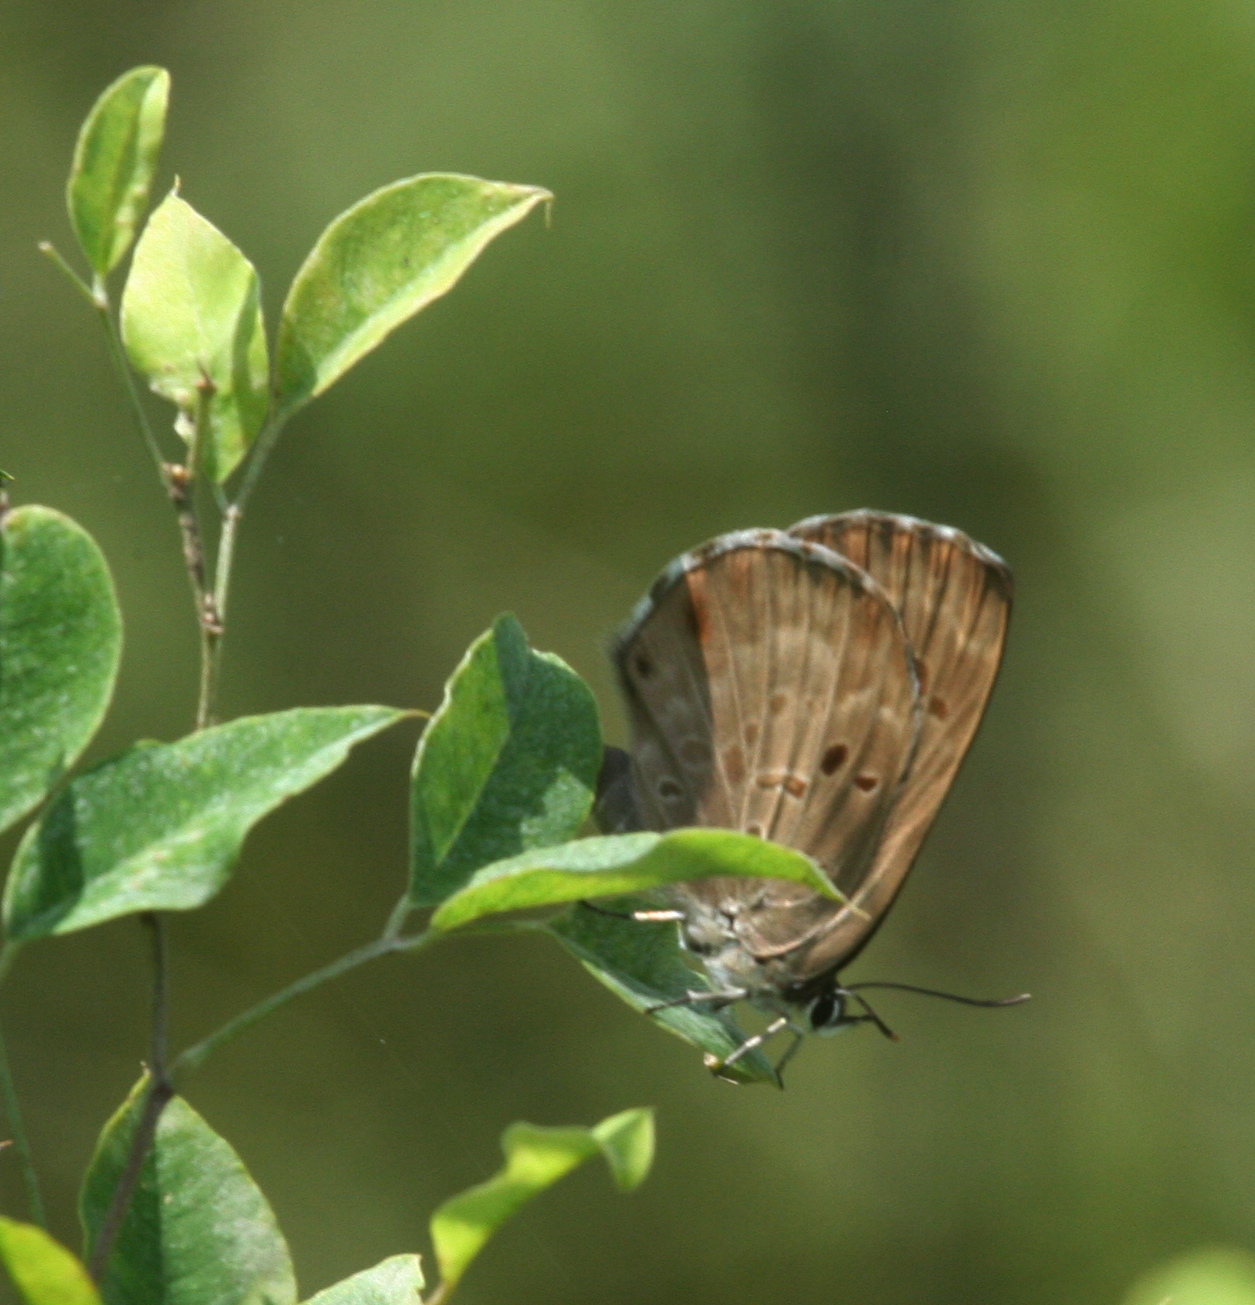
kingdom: Animalia
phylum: Arthropoda
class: Insecta
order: Lepidoptera
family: Lycaenidae
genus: Niphanda
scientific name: Niphanda fusca
